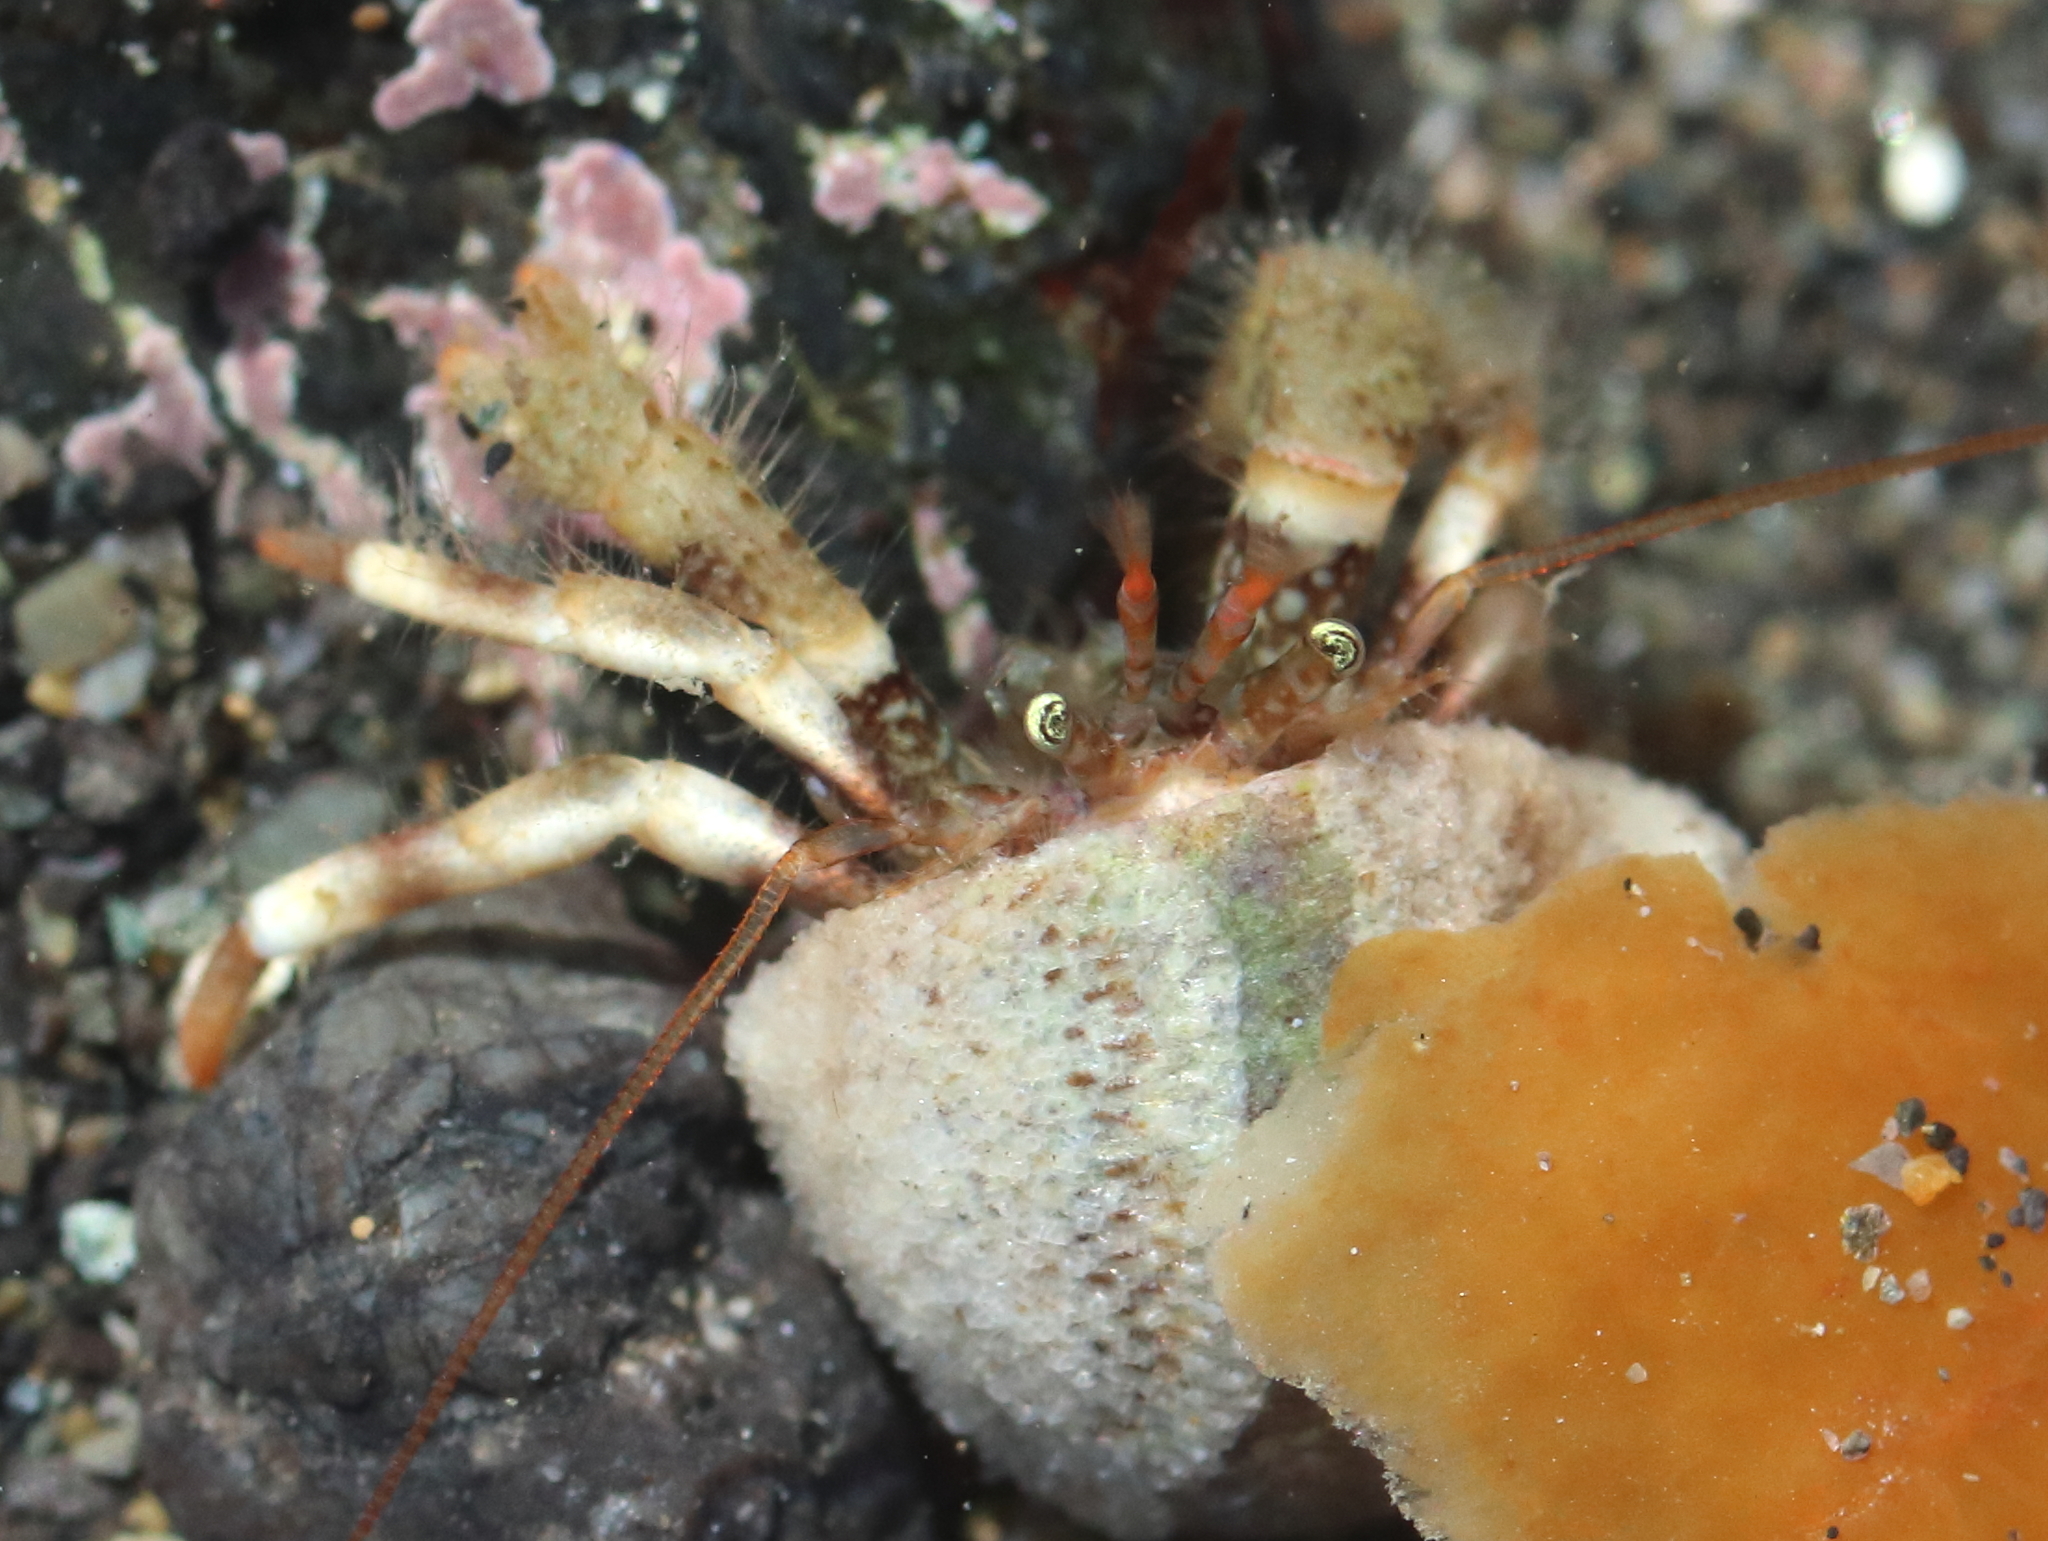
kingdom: Animalia
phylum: Arthropoda
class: Malacostraca
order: Decapoda
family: Paguridae
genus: Pagurus
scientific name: Pagurus caurinus
